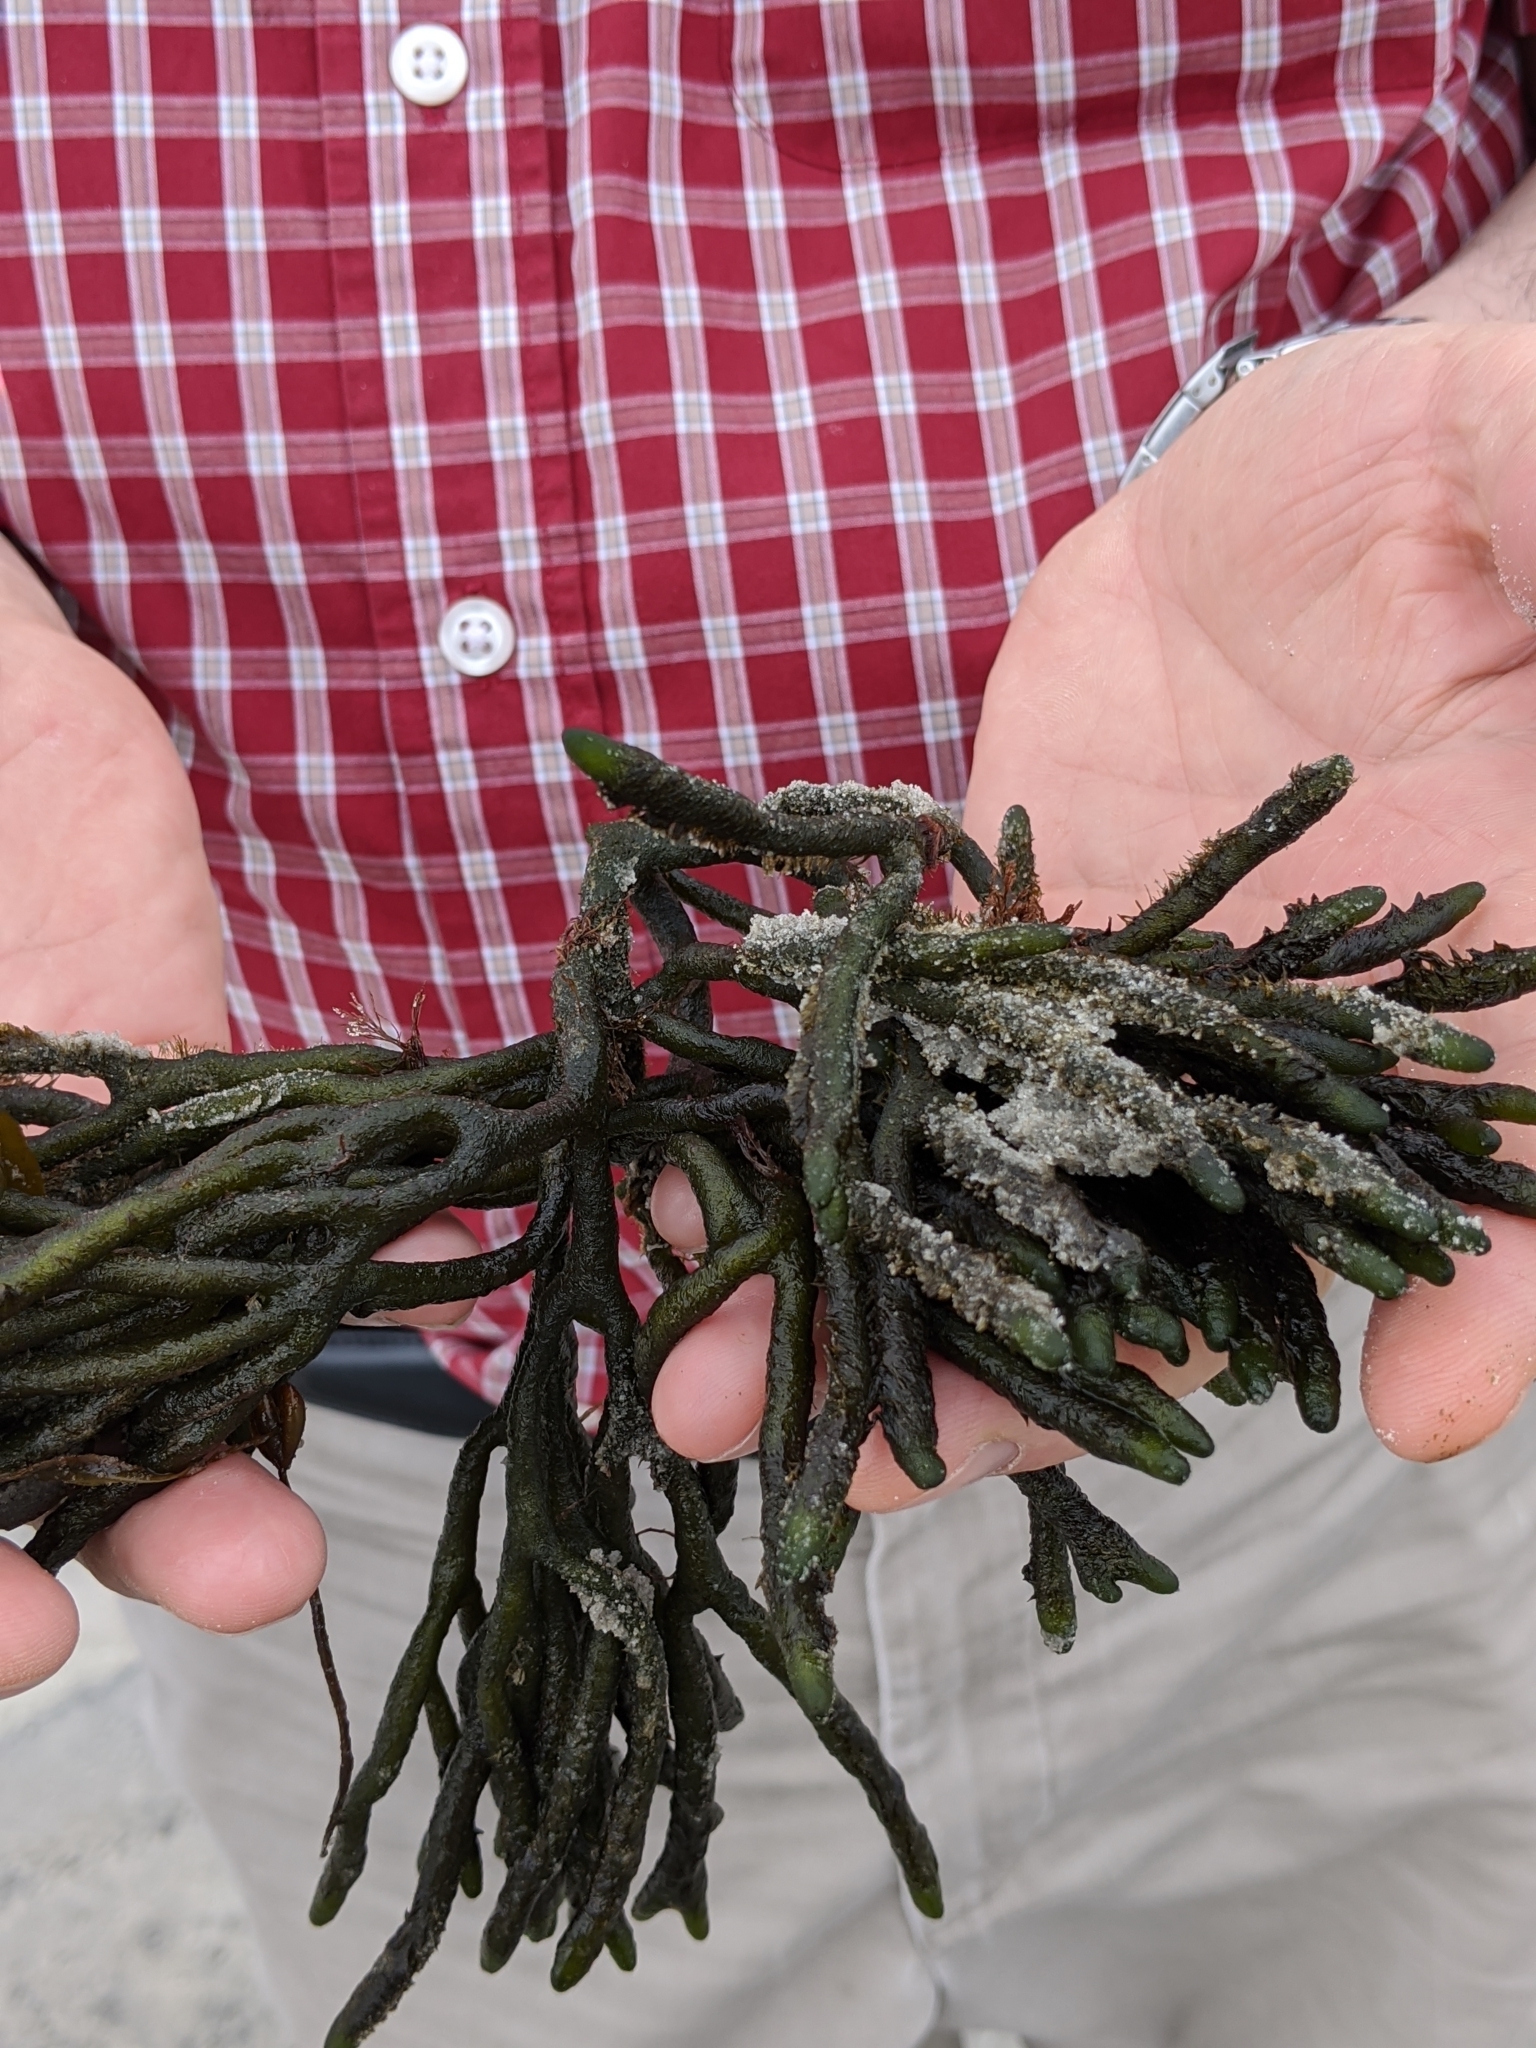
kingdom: Plantae
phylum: Chlorophyta
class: Ulvophyceae
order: Bryopsidales
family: Codiaceae
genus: Codium
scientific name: Codium fragile
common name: Dead man's fingers
